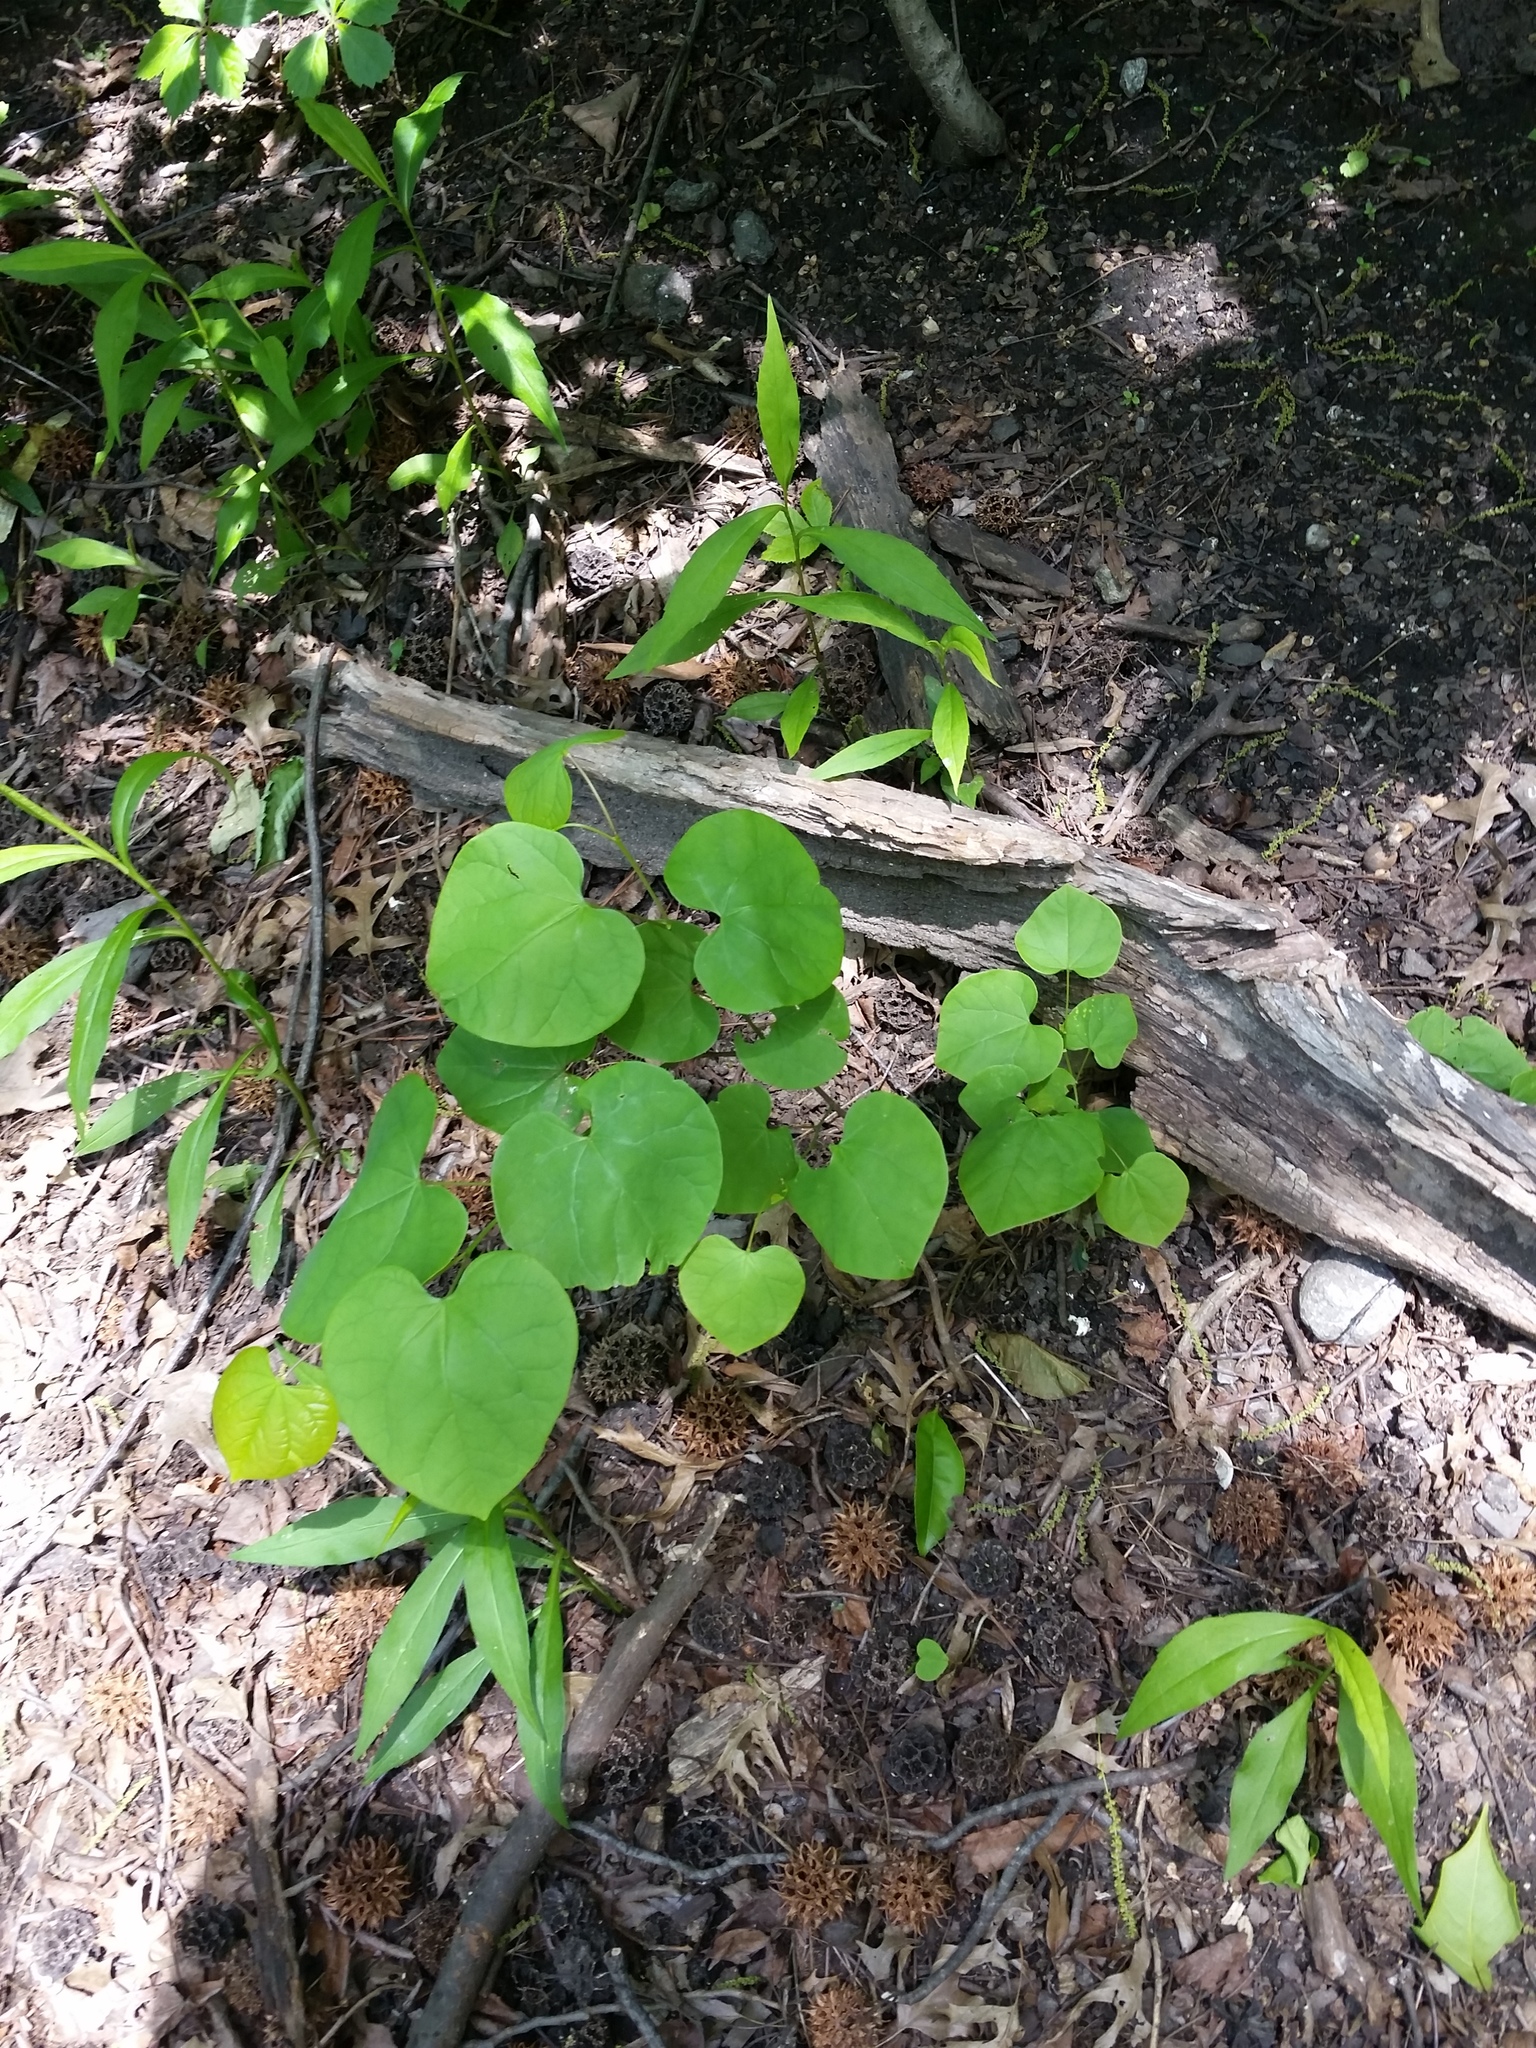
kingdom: Plantae
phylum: Tracheophyta
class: Magnoliopsida
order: Fabales
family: Fabaceae
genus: Cercis
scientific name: Cercis canadensis
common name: Eastern redbud
